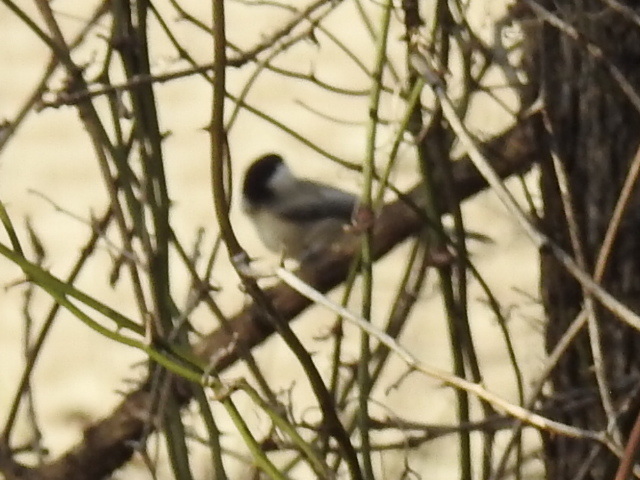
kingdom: Animalia
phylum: Chordata
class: Aves
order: Passeriformes
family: Paridae
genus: Poecile
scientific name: Poecile carolinensis
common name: Carolina chickadee
